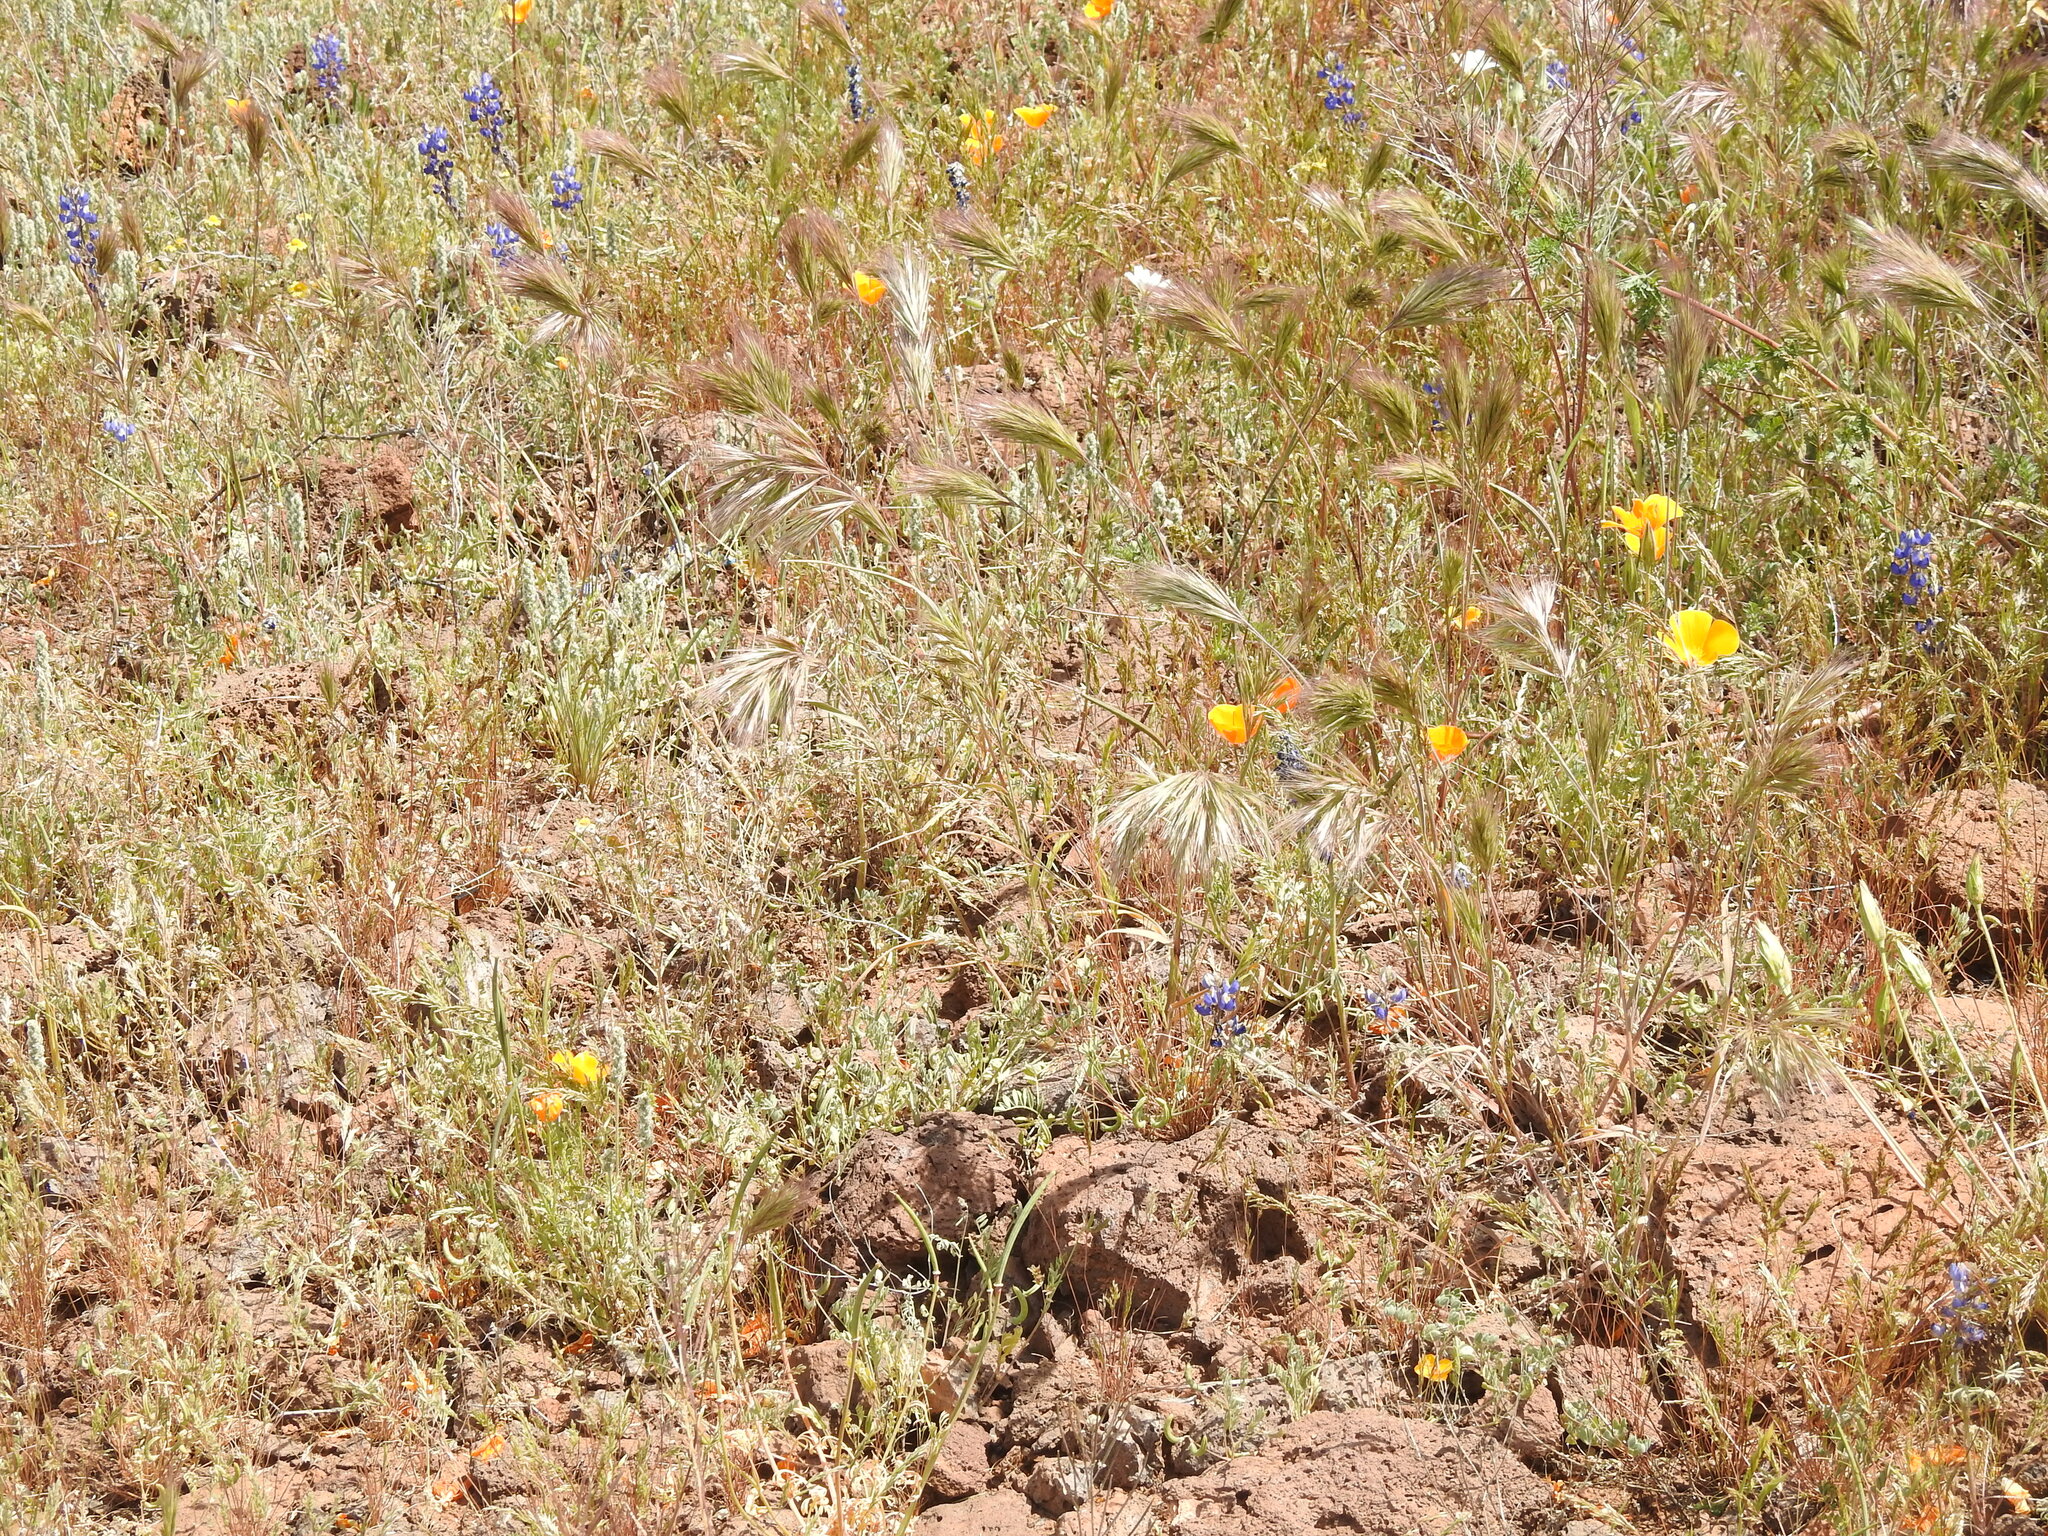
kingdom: Plantae
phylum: Tracheophyta
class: Liliopsida
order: Poales
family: Poaceae
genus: Bromus
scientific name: Bromus rubens
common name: Red brome
